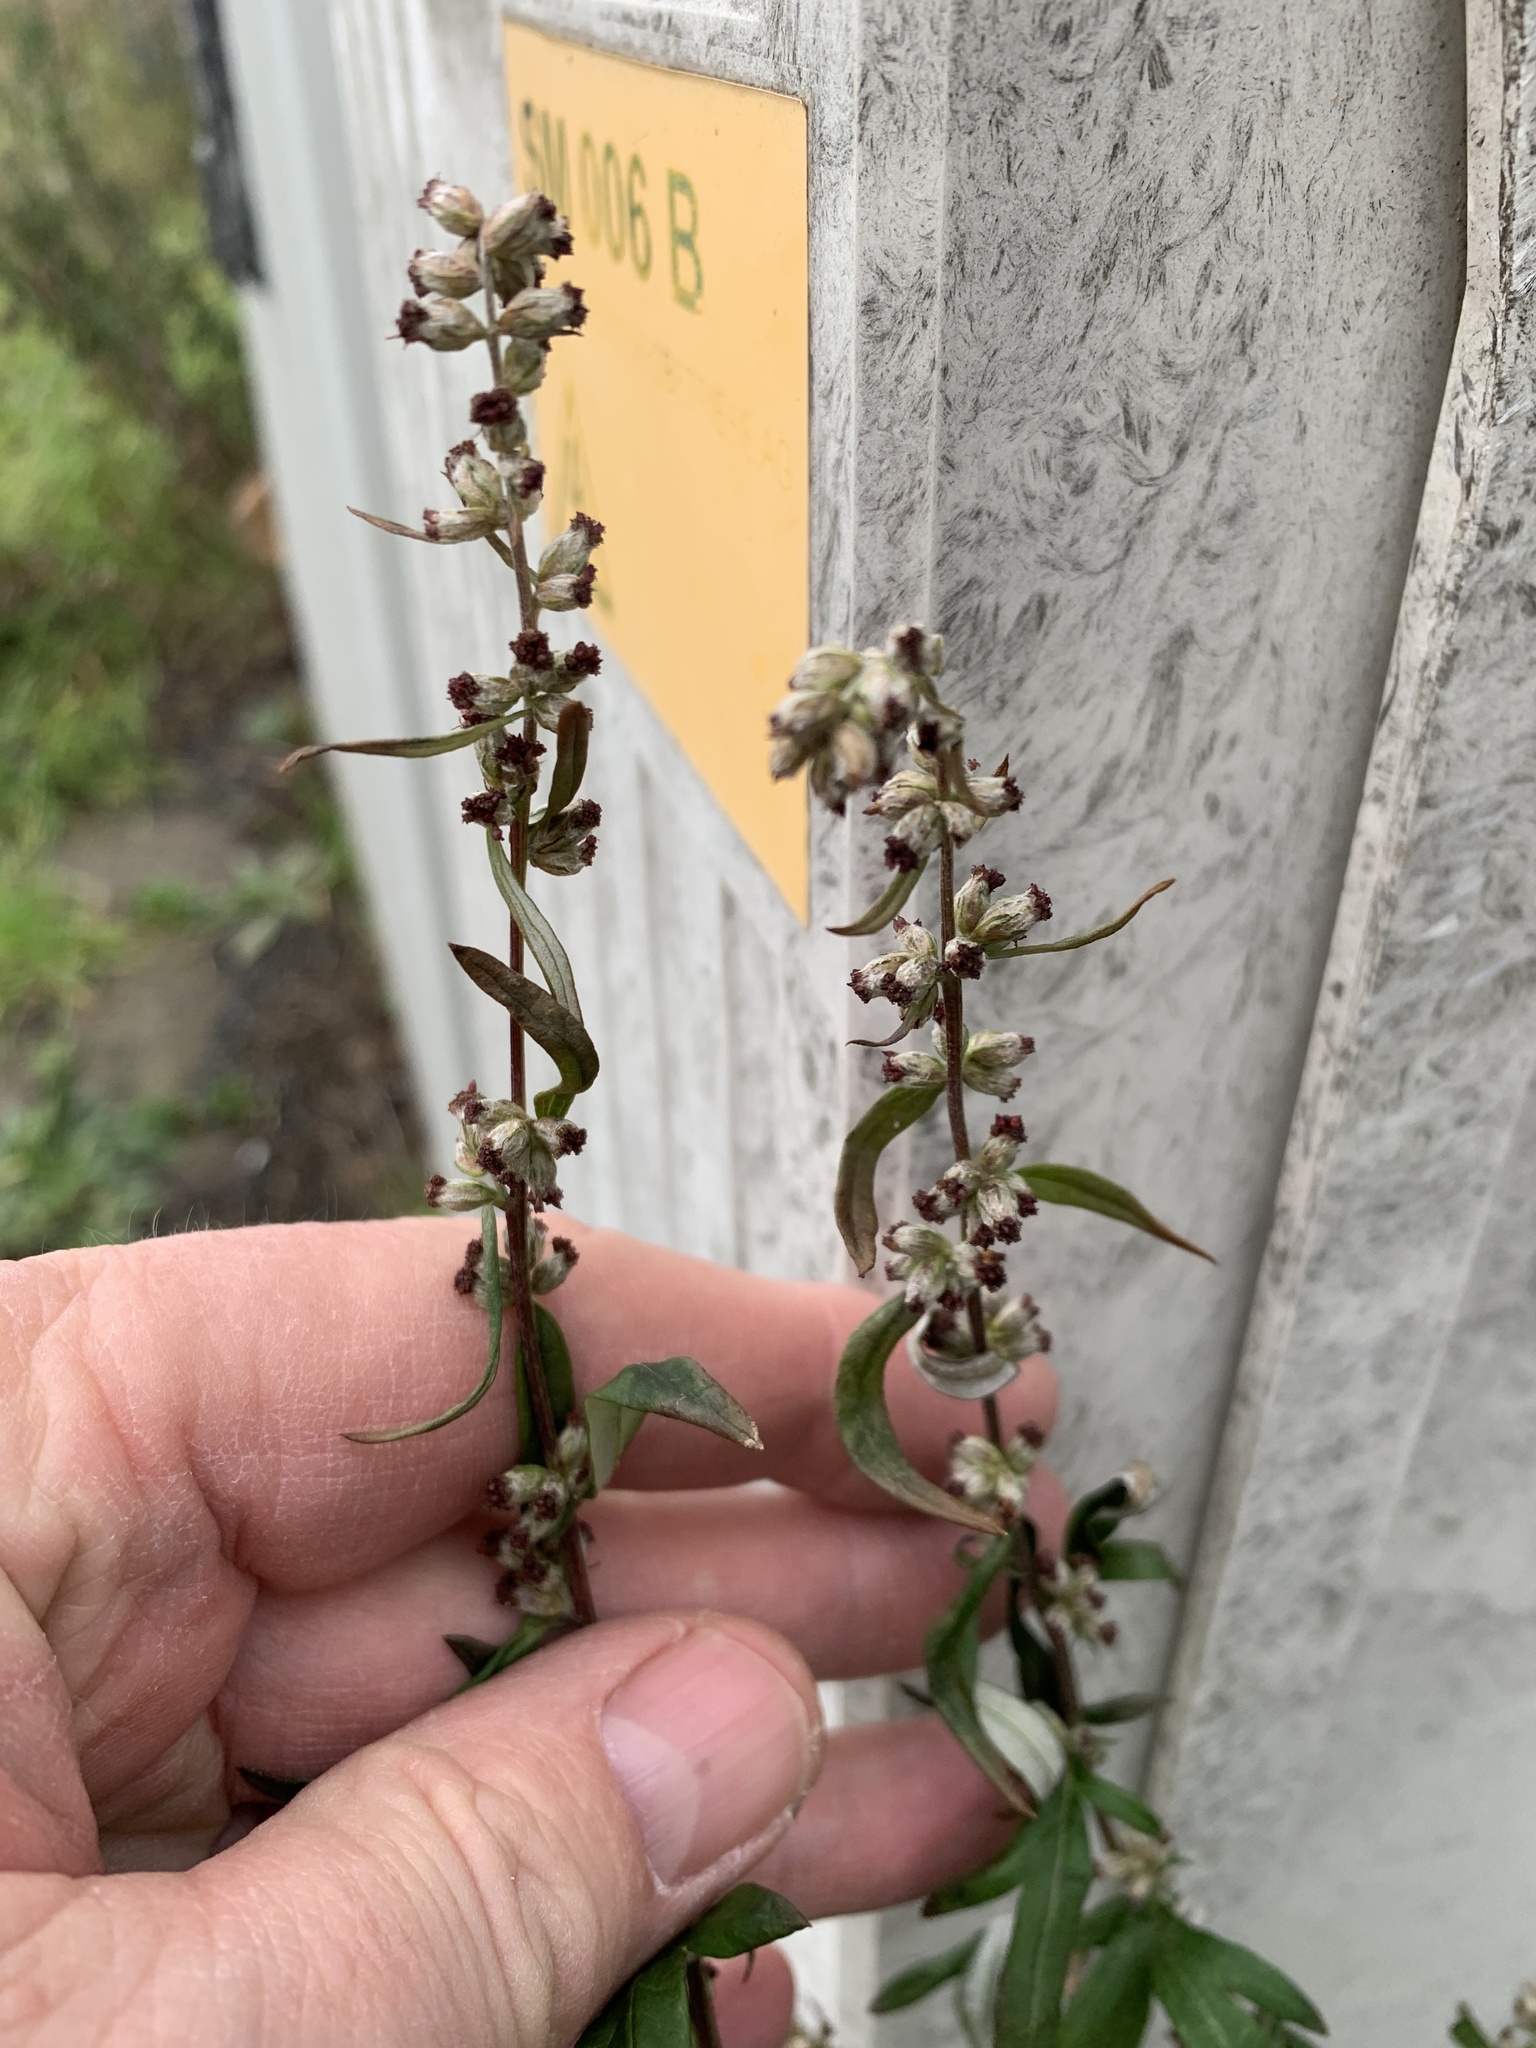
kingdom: Plantae
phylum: Tracheophyta
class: Magnoliopsida
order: Asterales
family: Asteraceae
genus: Artemisia
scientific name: Artemisia vulgaris
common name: Mugwort
